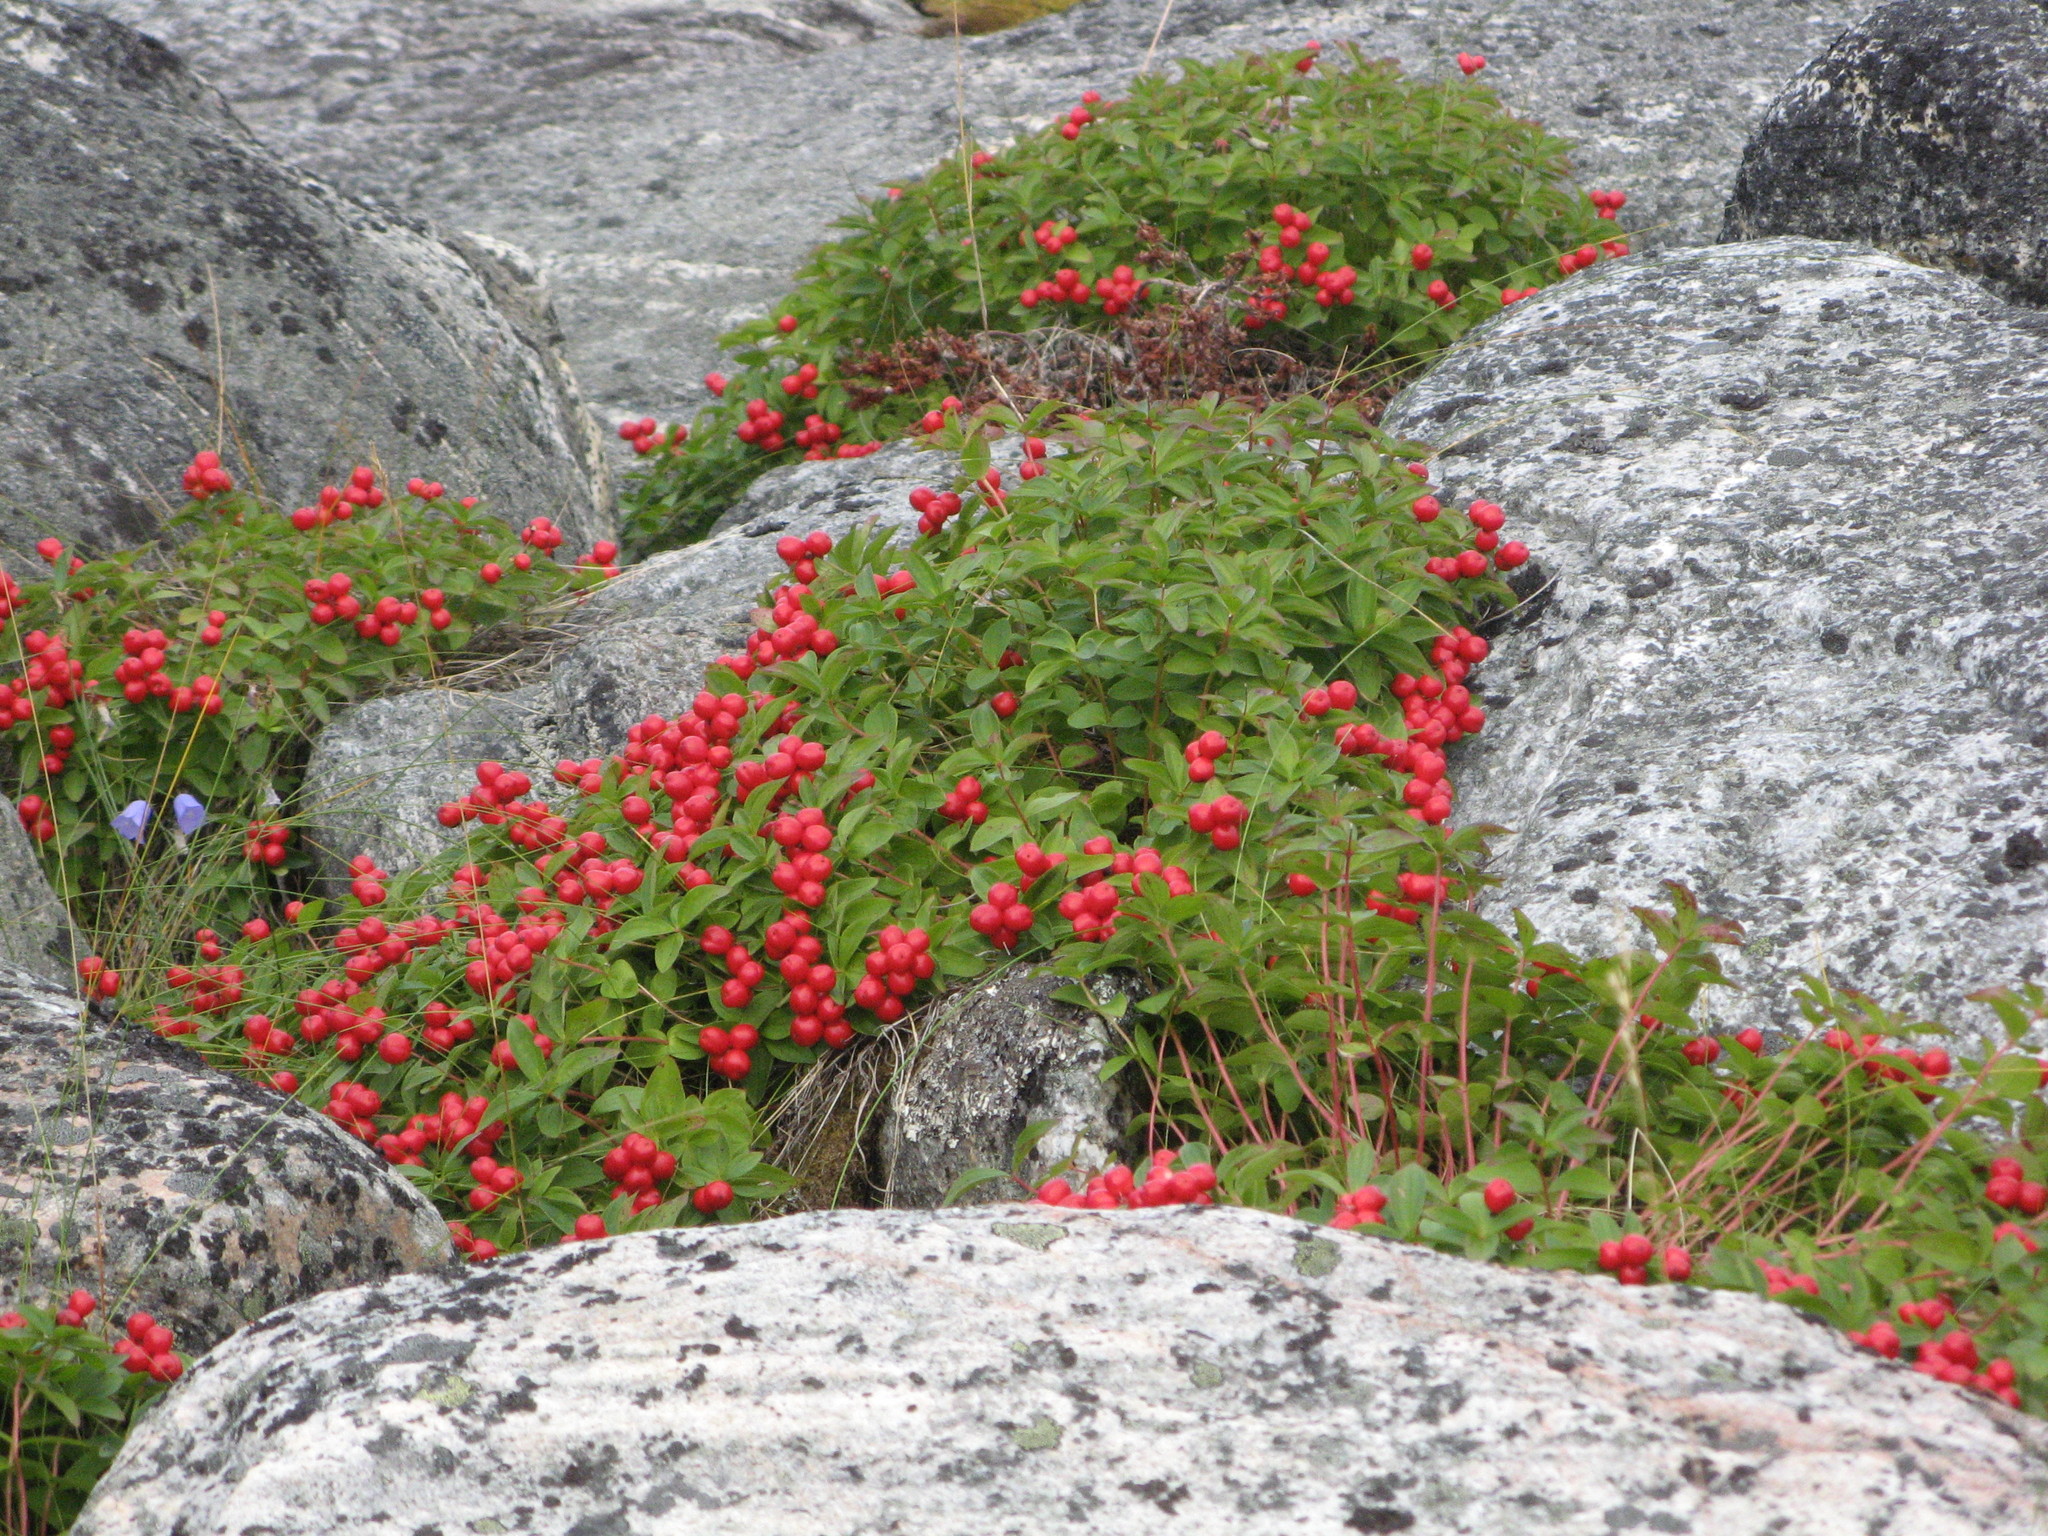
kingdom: Plantae
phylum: Tracheophyta
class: Magnoliopsida
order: Cornales
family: Cornaceae
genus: Cornus
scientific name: Cornus suecica
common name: Dwarf cornel
